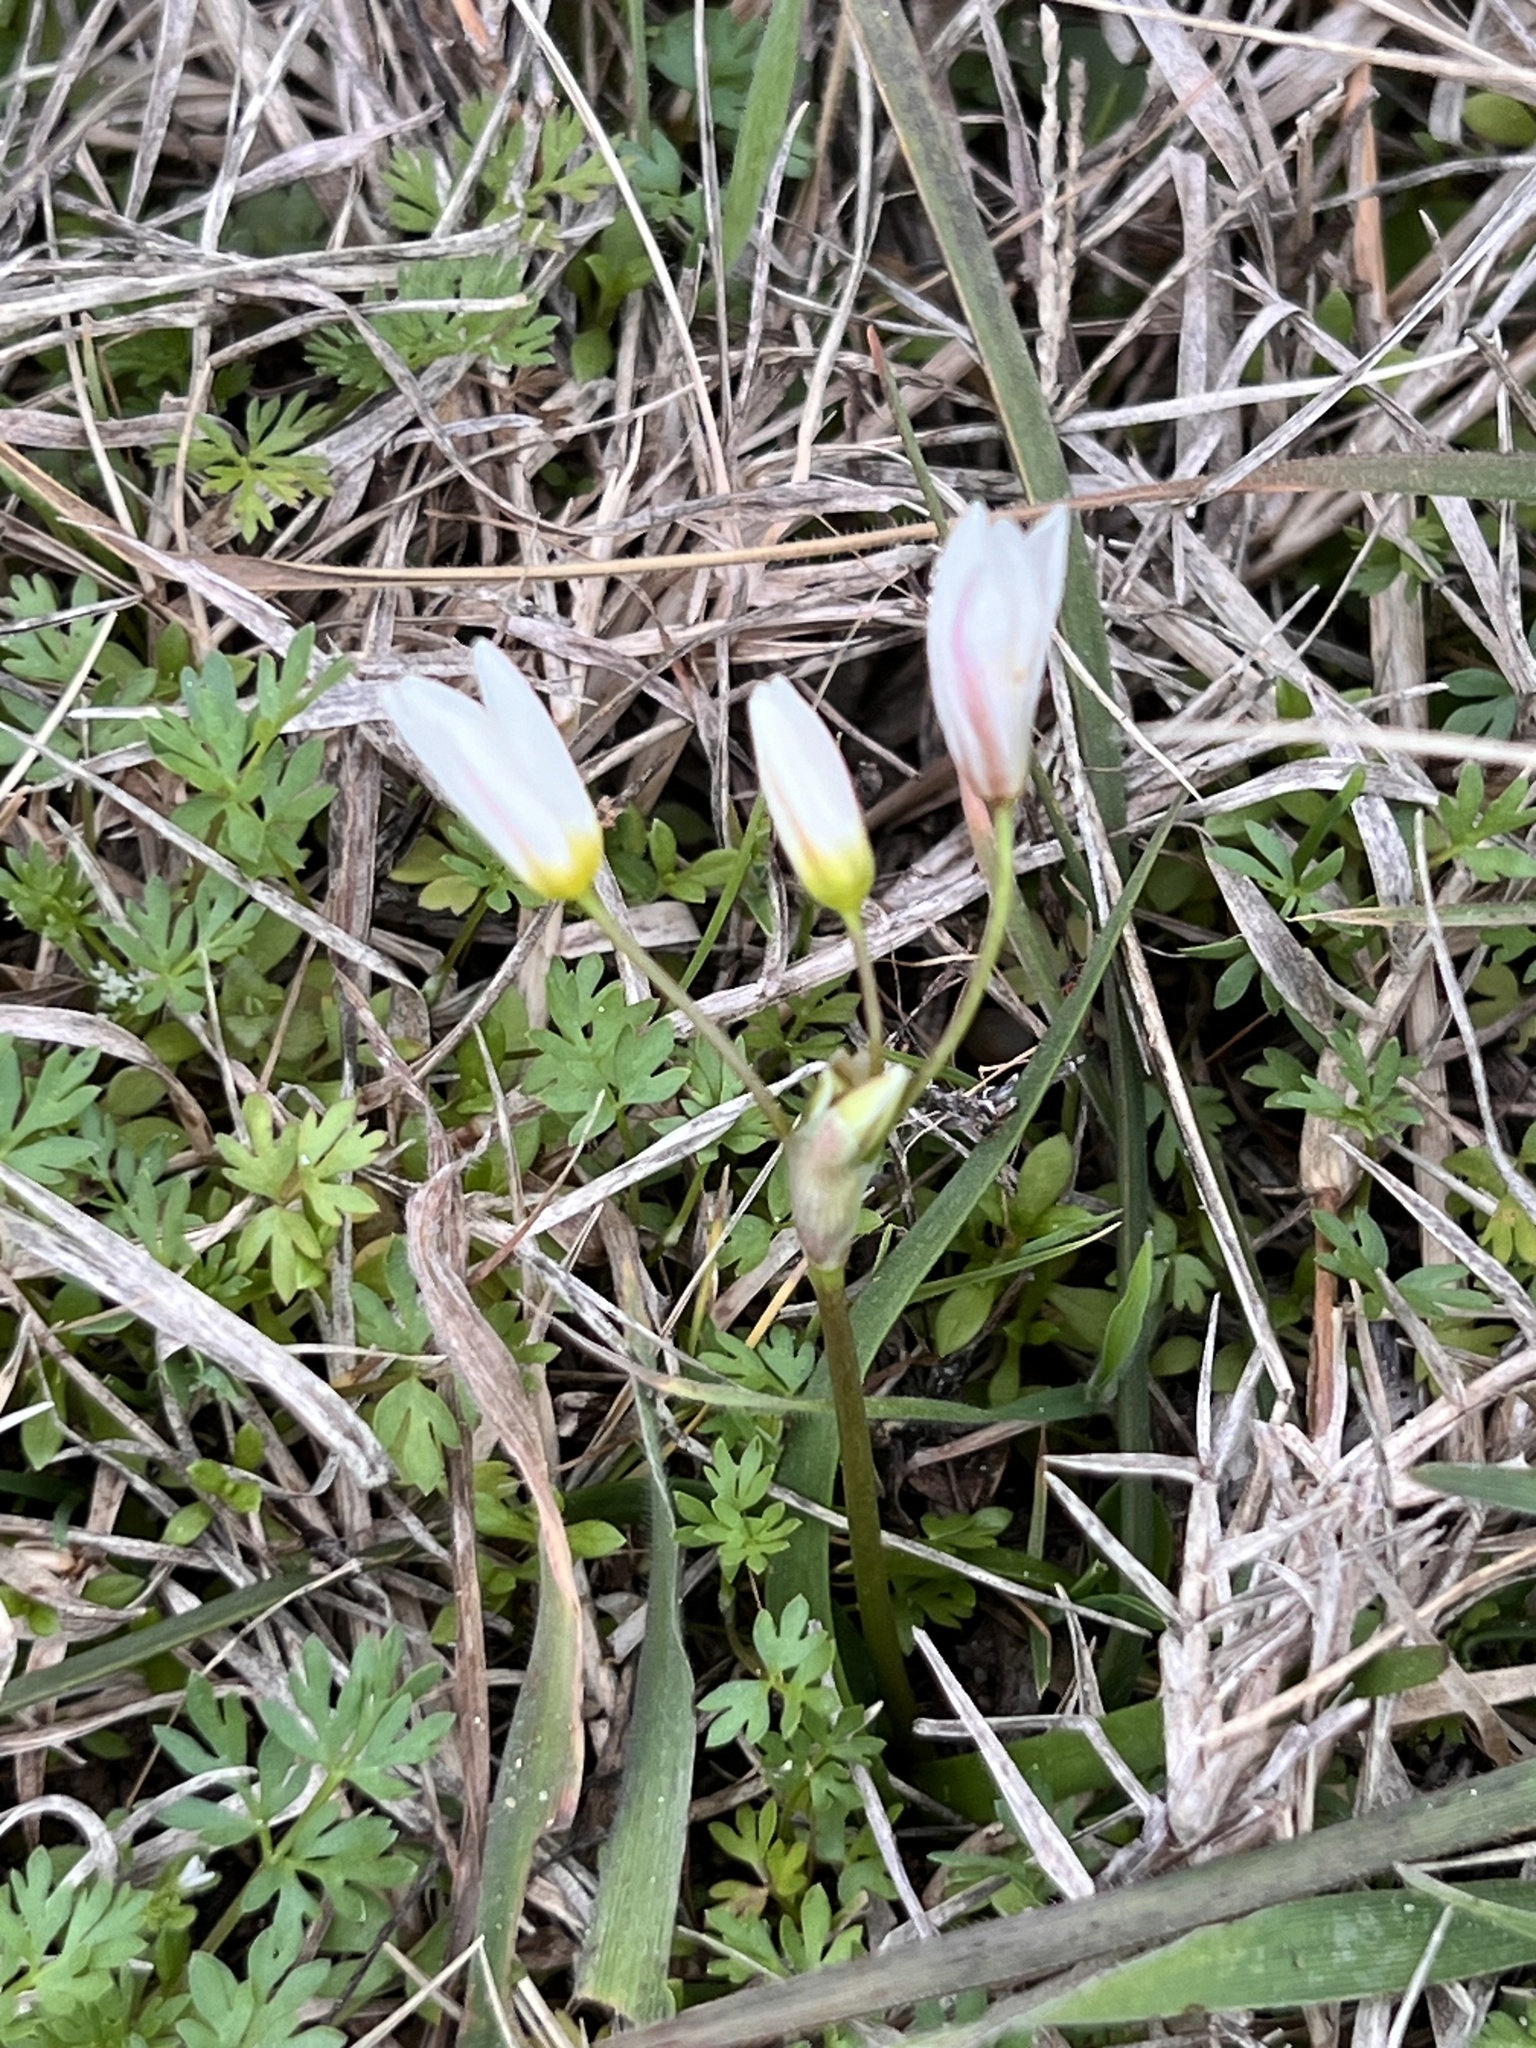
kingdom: Plantae
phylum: Tracheophyta
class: Liliopsida
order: Asparagales
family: Amaryllidaceae
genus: Nothoscordum
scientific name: Nothoscordum bivalve
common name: Crow-poison
